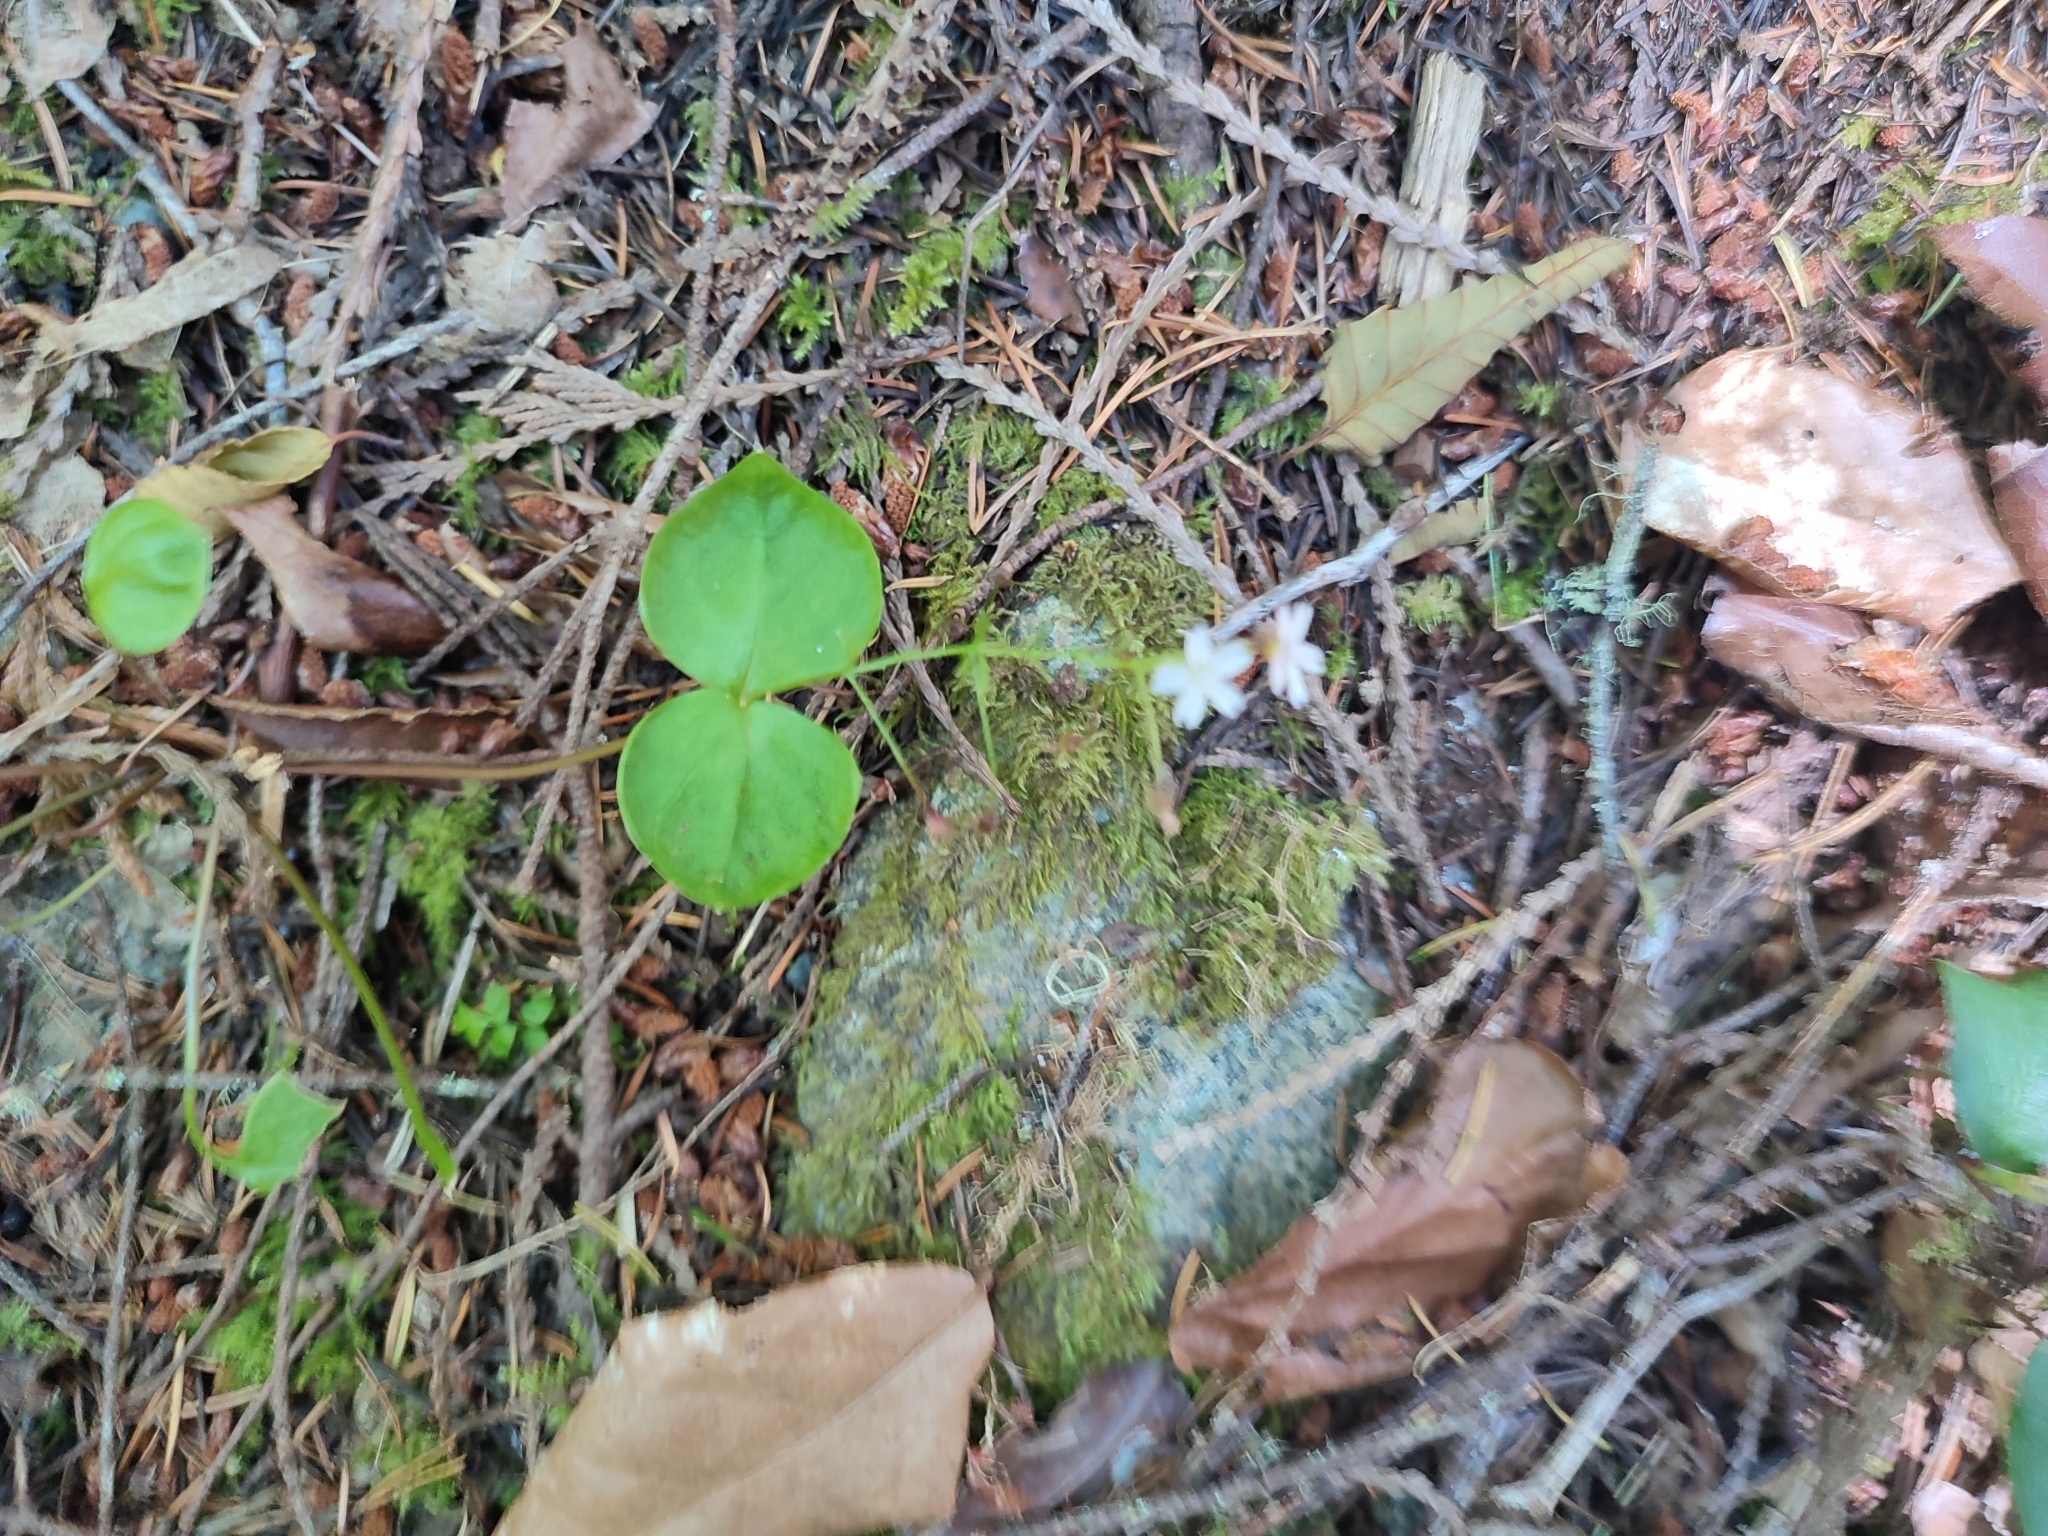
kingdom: Plantae
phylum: Tracheophyta
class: Magnoliopsida
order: Caryophyllales
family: Montiaceae
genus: Claytonia
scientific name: Claytonia sibirica
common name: Pink purslane
